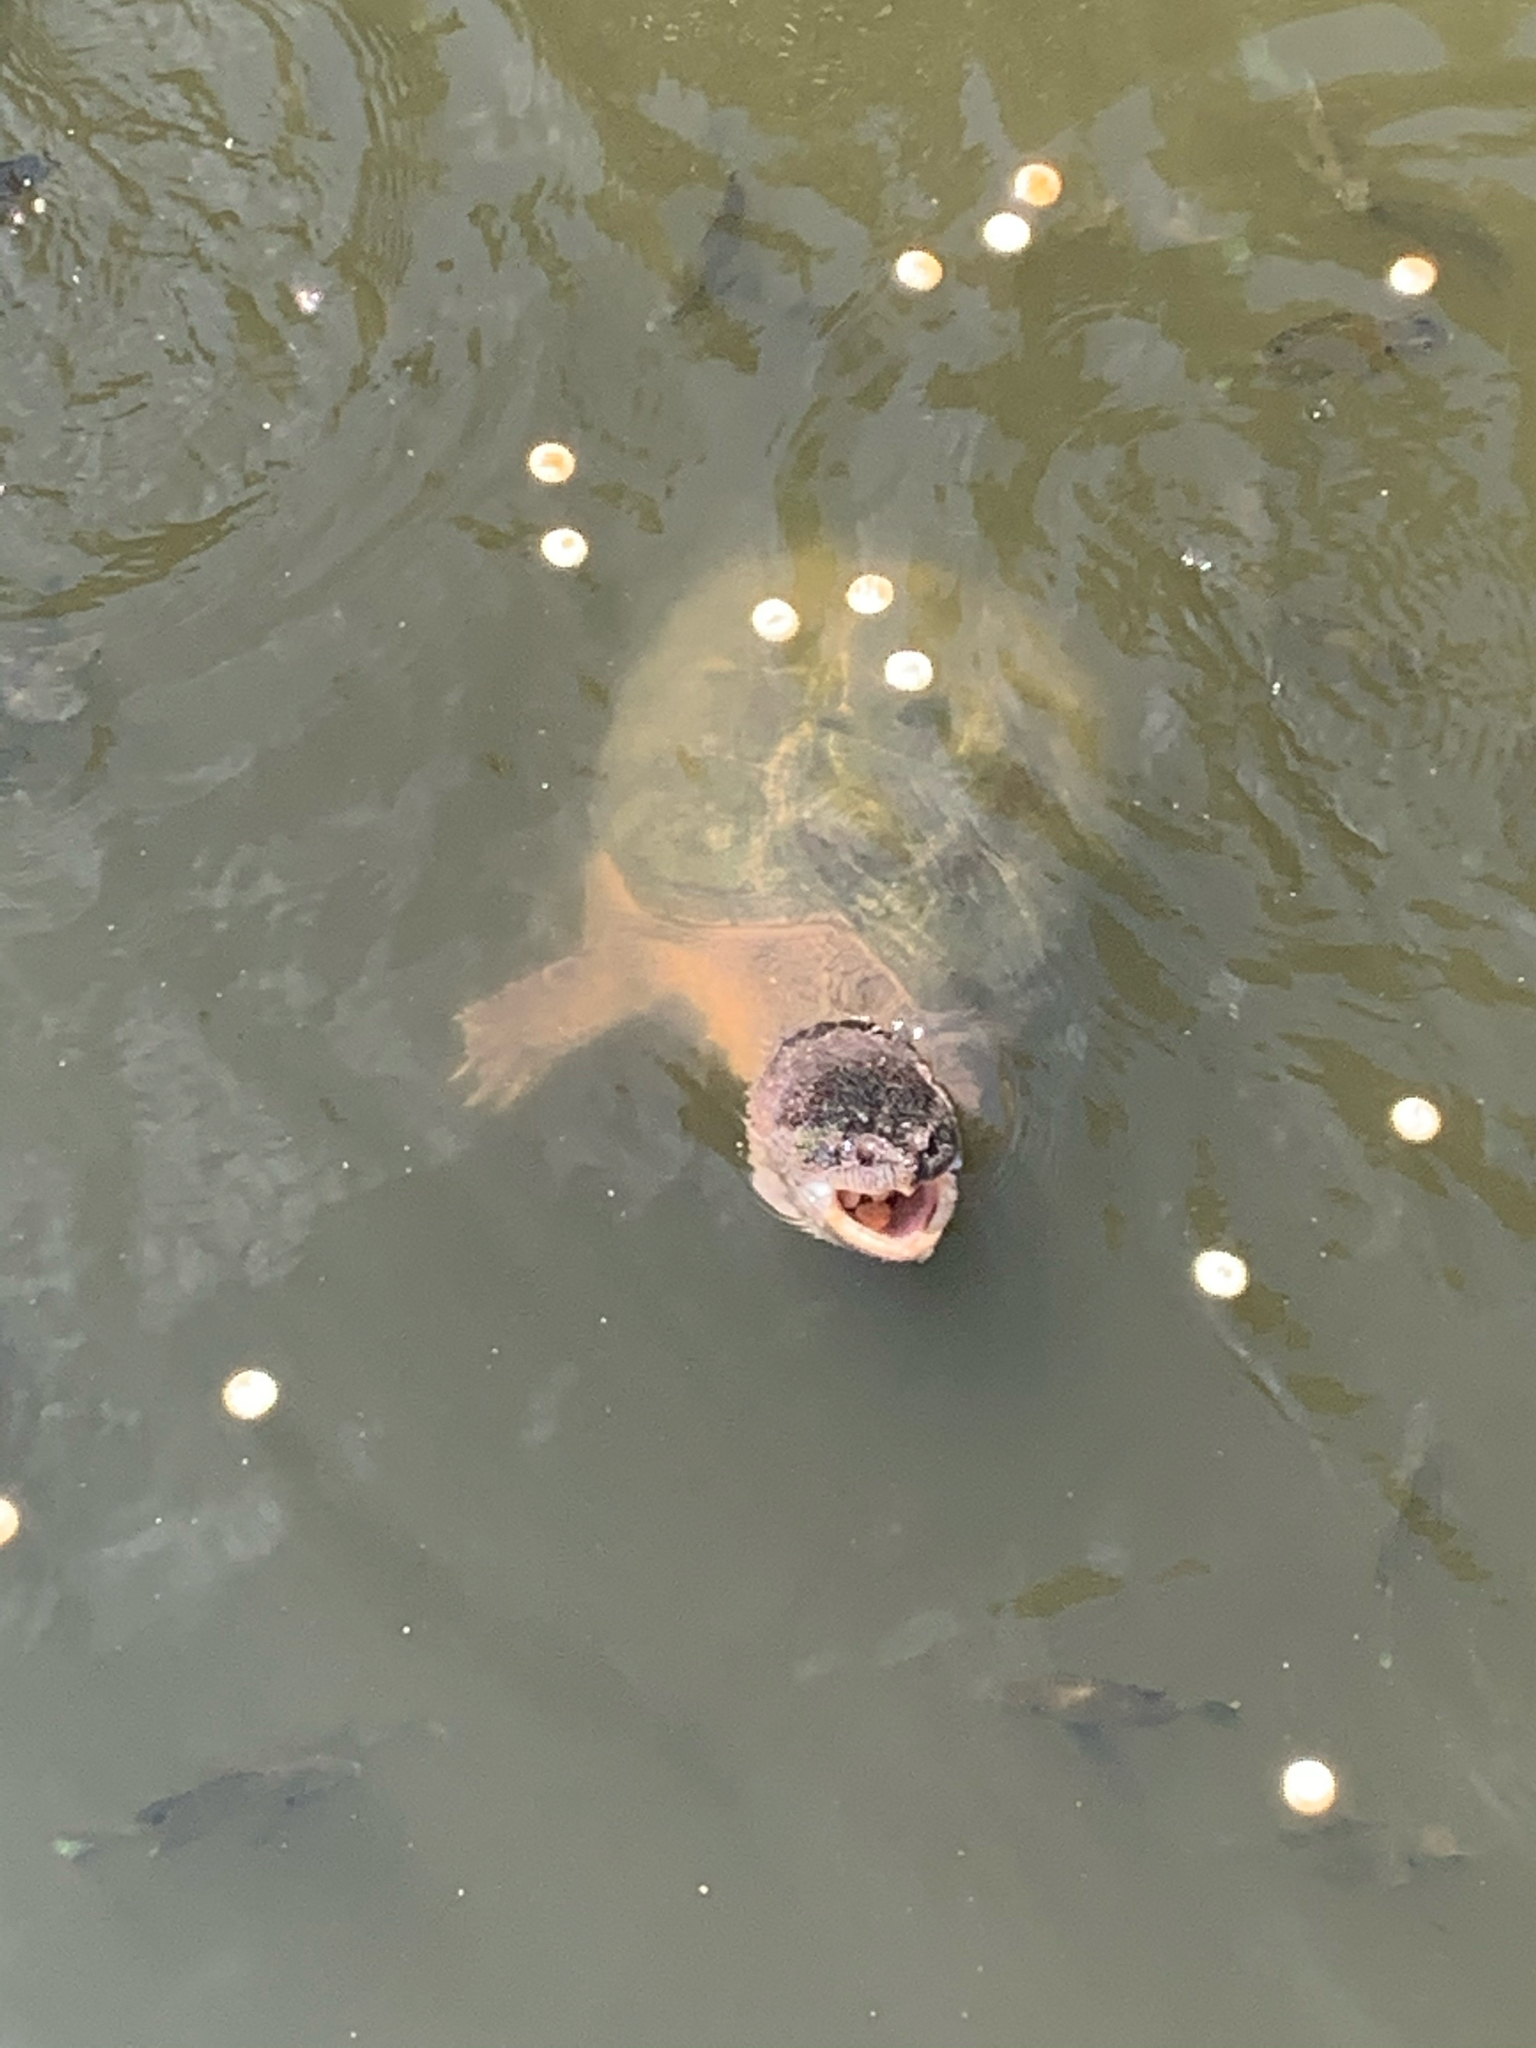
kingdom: Animalia
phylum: Chordata
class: Testudines
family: Chelydridae
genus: Chelydra
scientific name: Chelydra serpentina
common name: Common snapping turtle
